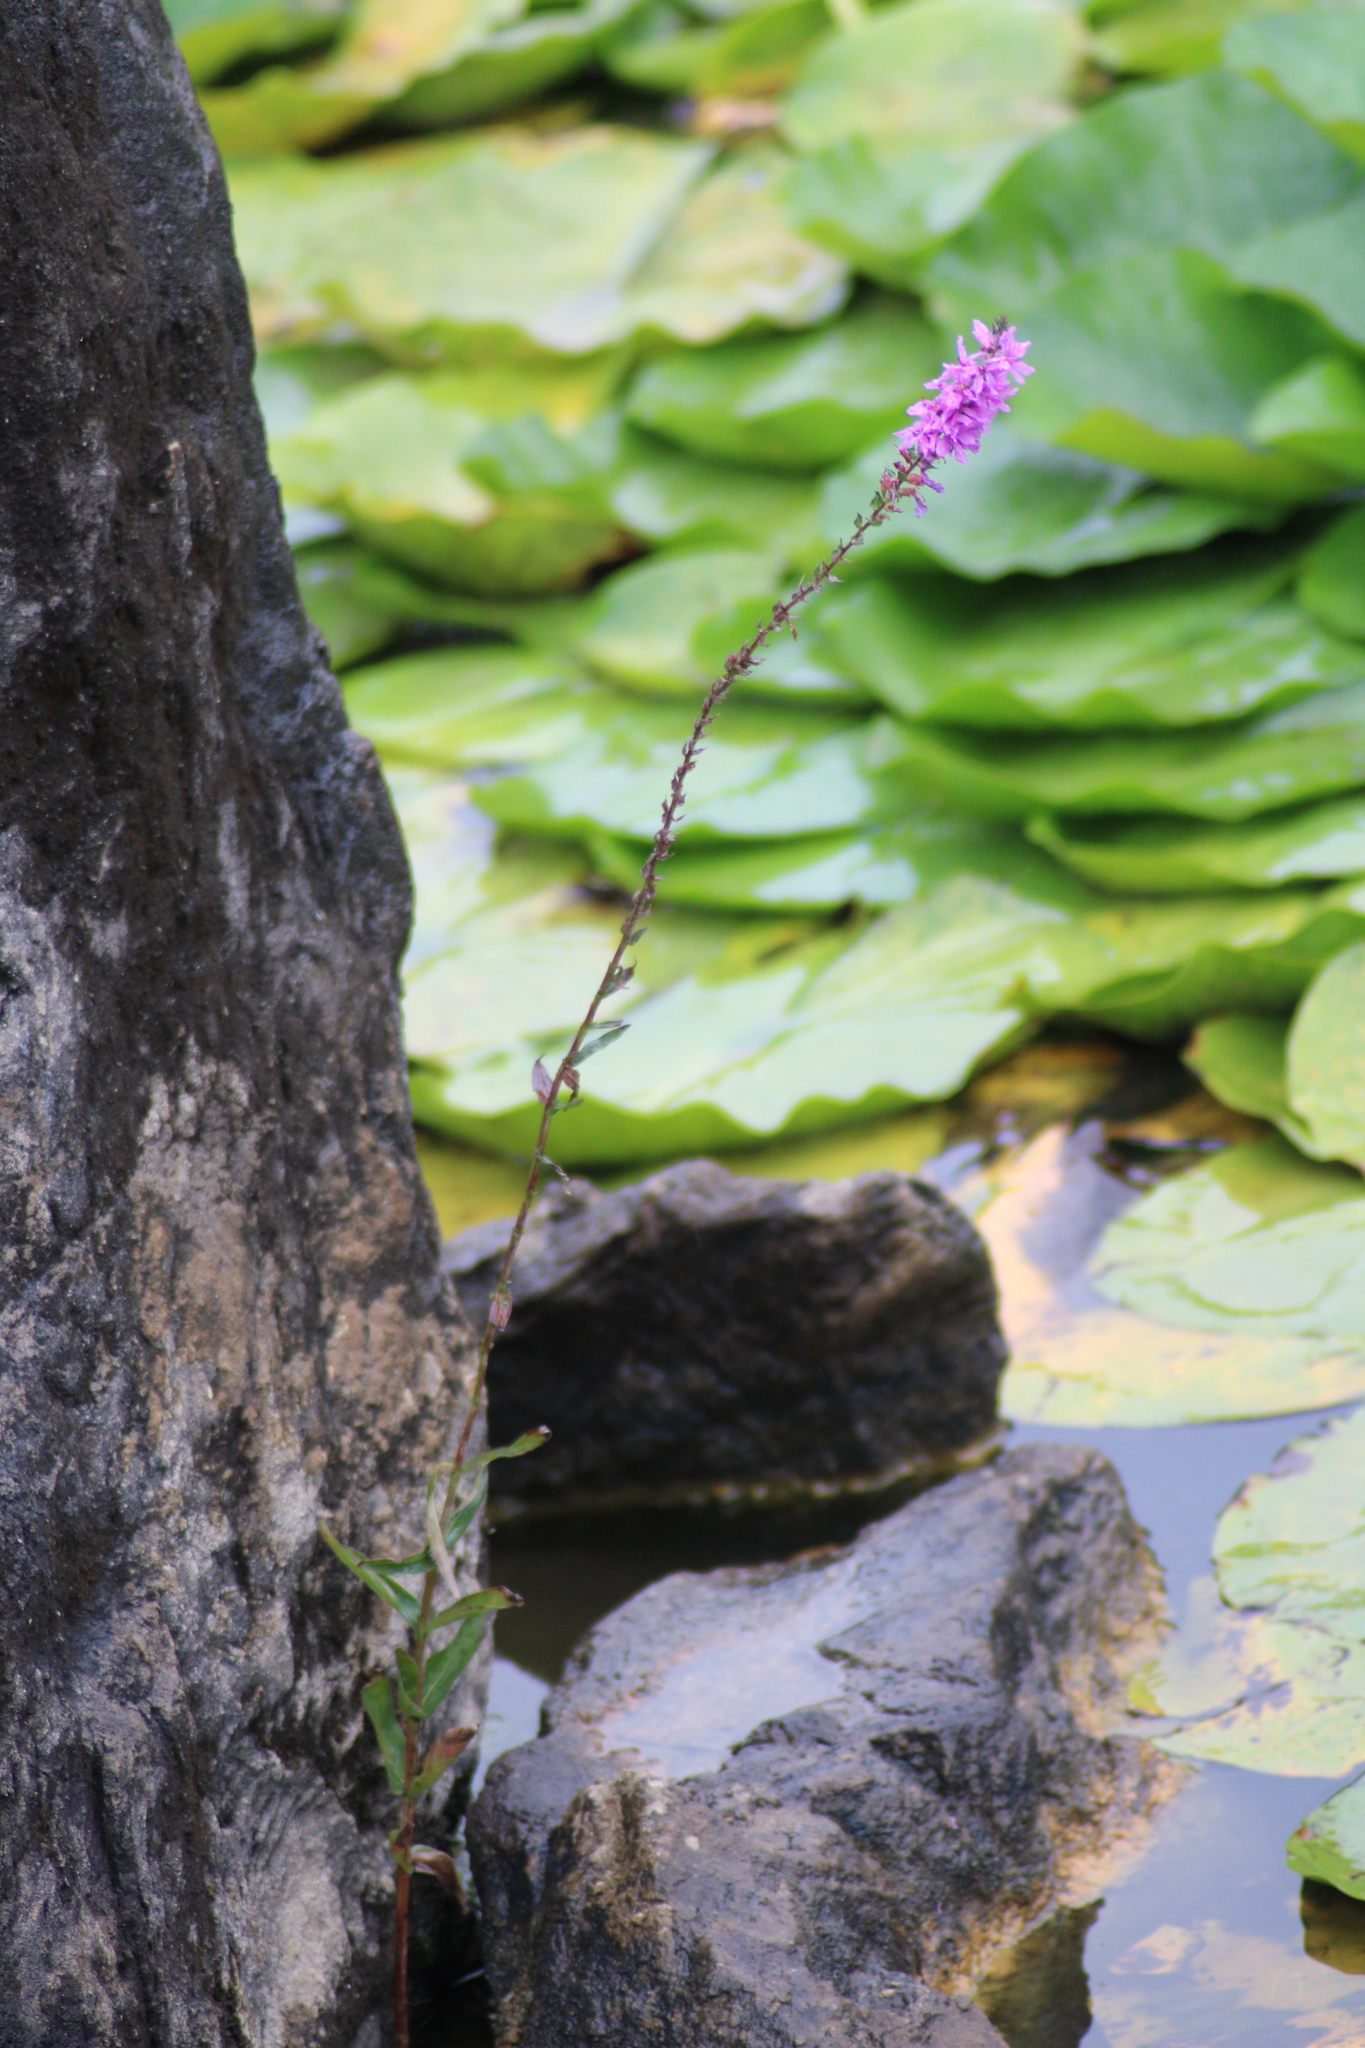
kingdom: Plantae
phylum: Tracheophyta
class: Magnoliopsida
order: Myrtales
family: Lythraceae
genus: Lythrum
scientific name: Lythrum salicaria
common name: Purple loosestrife
